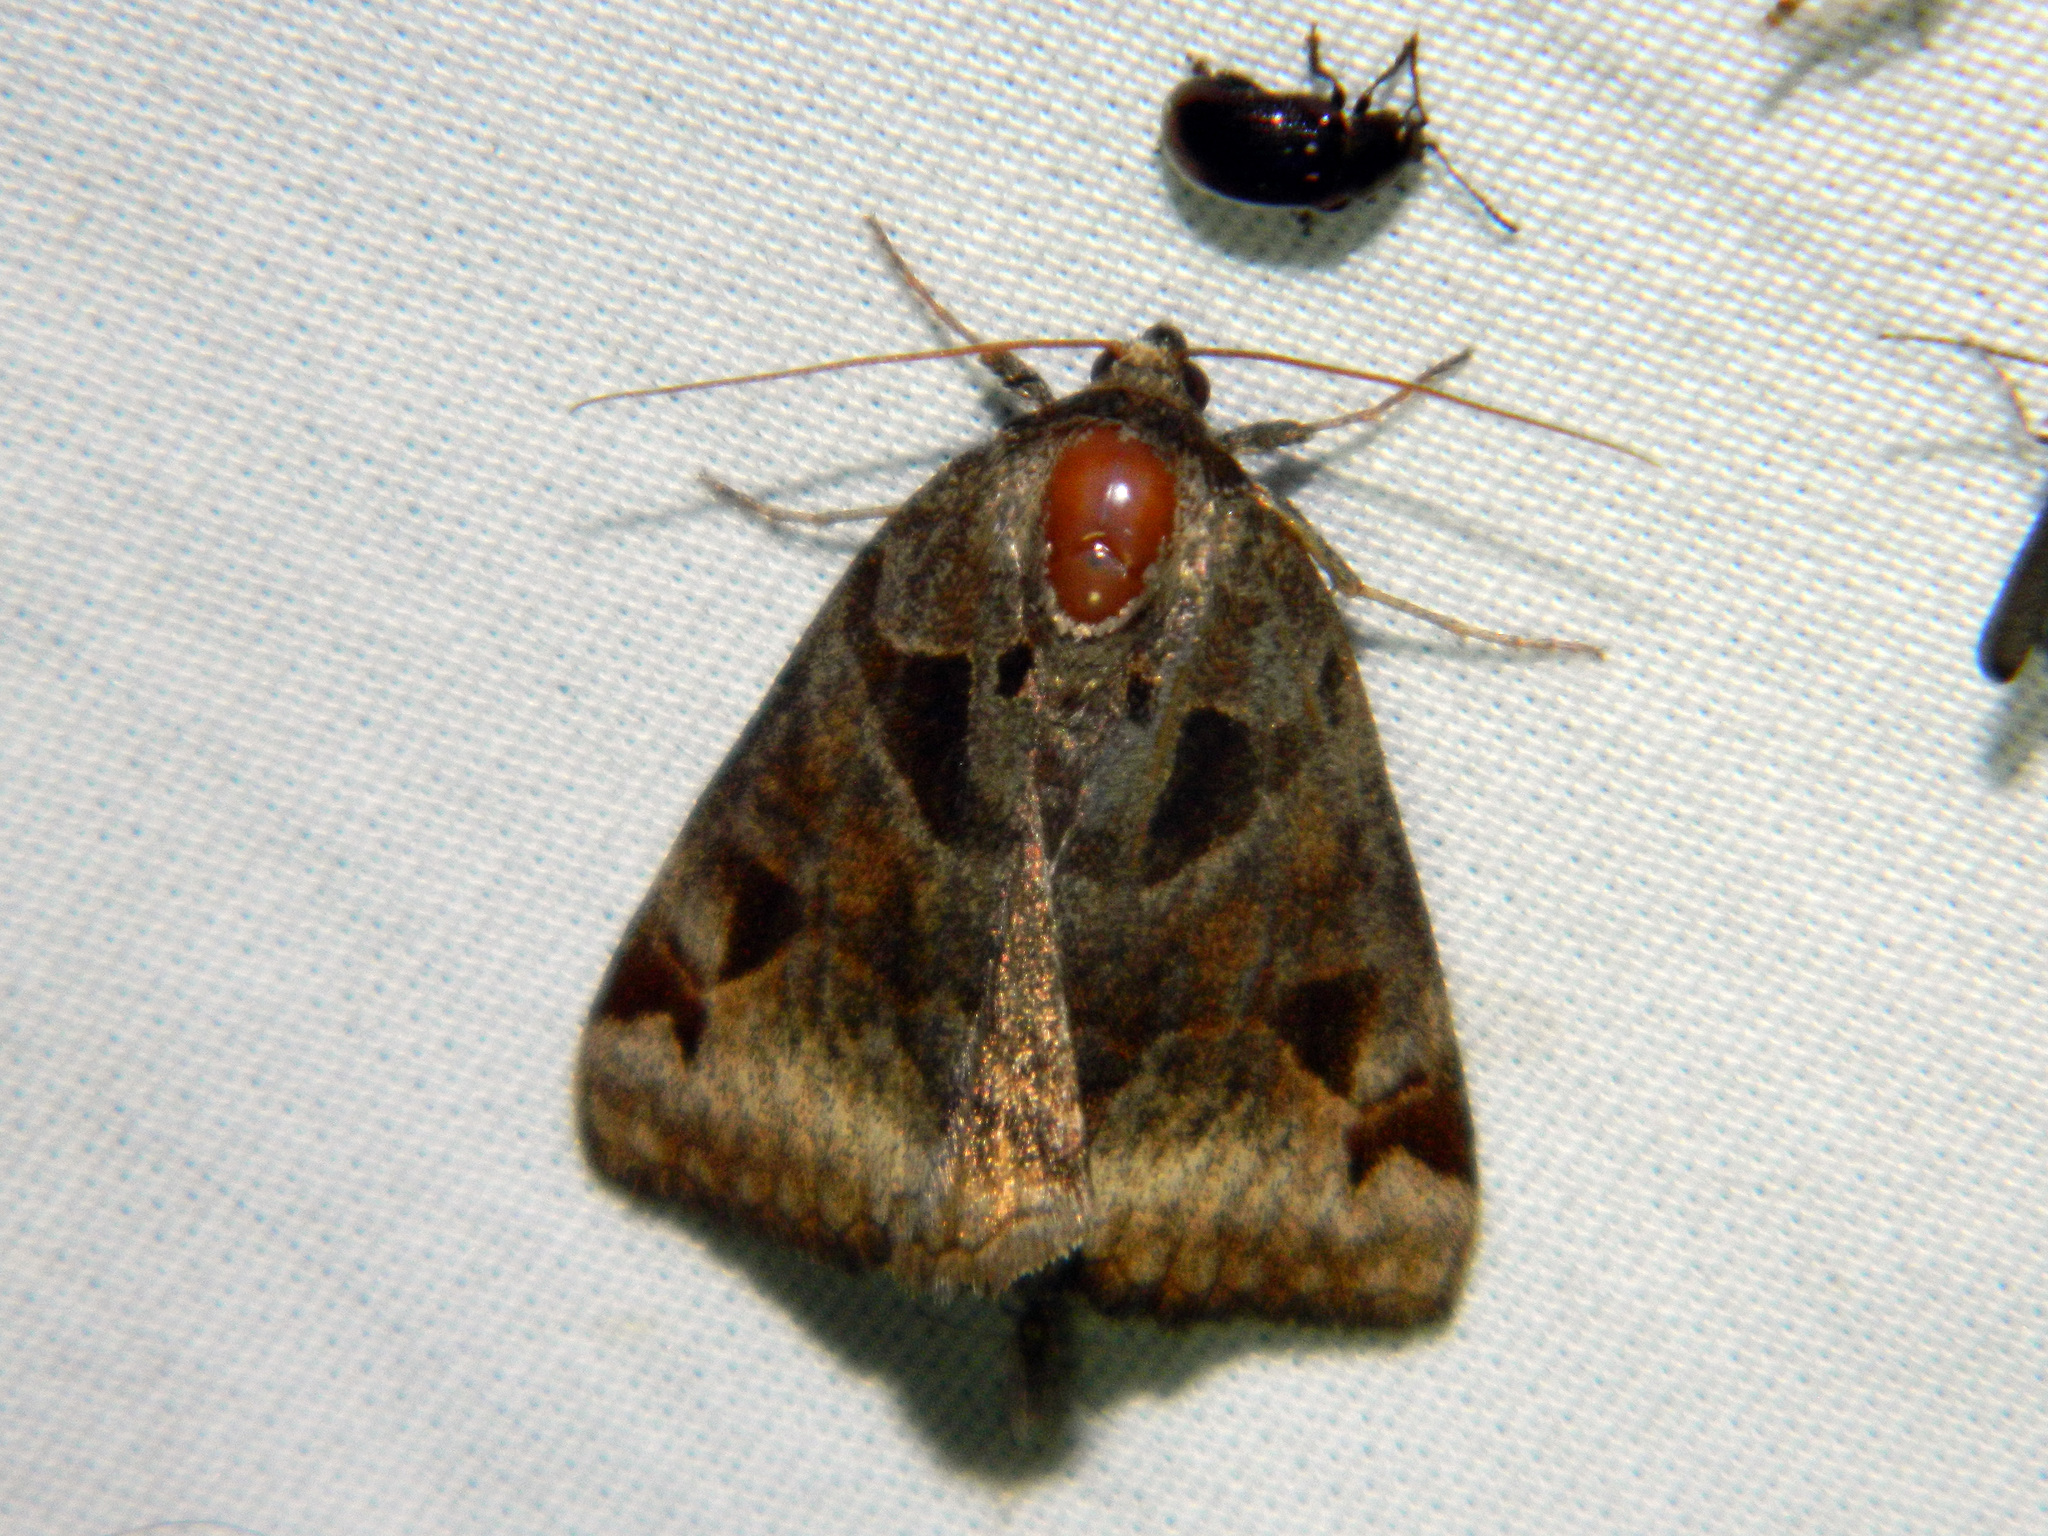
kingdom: Animalia
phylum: Arthropoda
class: Insecta
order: Lepidoptera
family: Erebidae
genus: Euclidia
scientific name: Euclidia cuspidea
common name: Toothed somberwing
